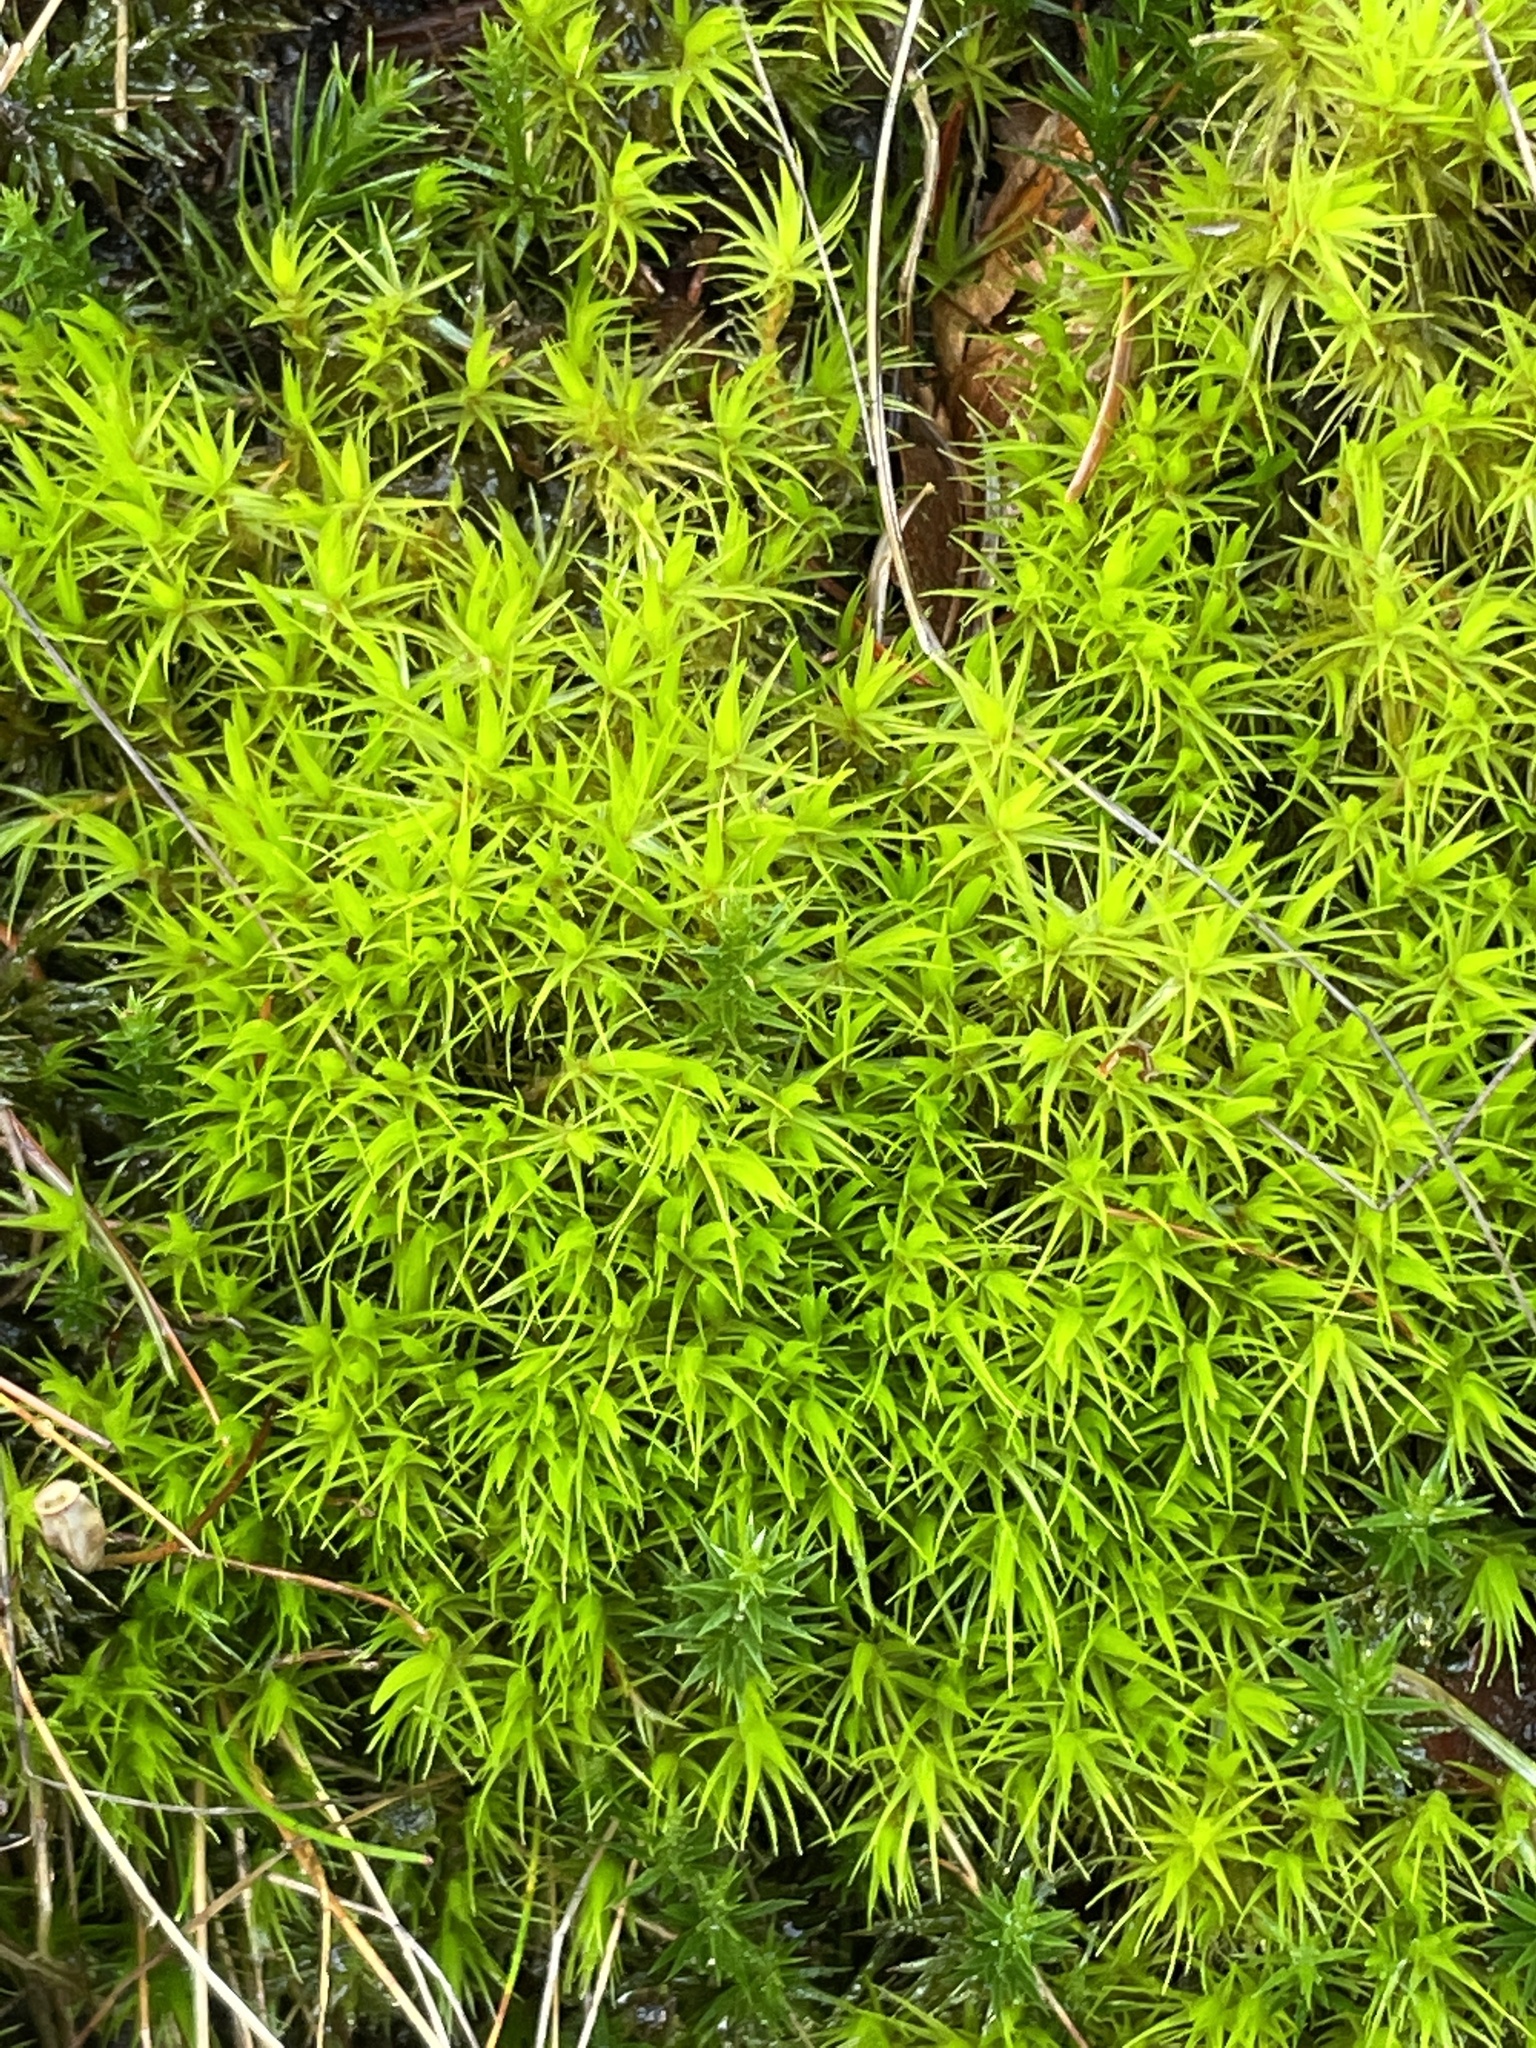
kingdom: Plantae
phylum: Bryophyta
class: Bryopsida
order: Dicranales
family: Dicranaceae
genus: Dicranum
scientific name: Dicranum scoparium
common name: Broom fork-moss
